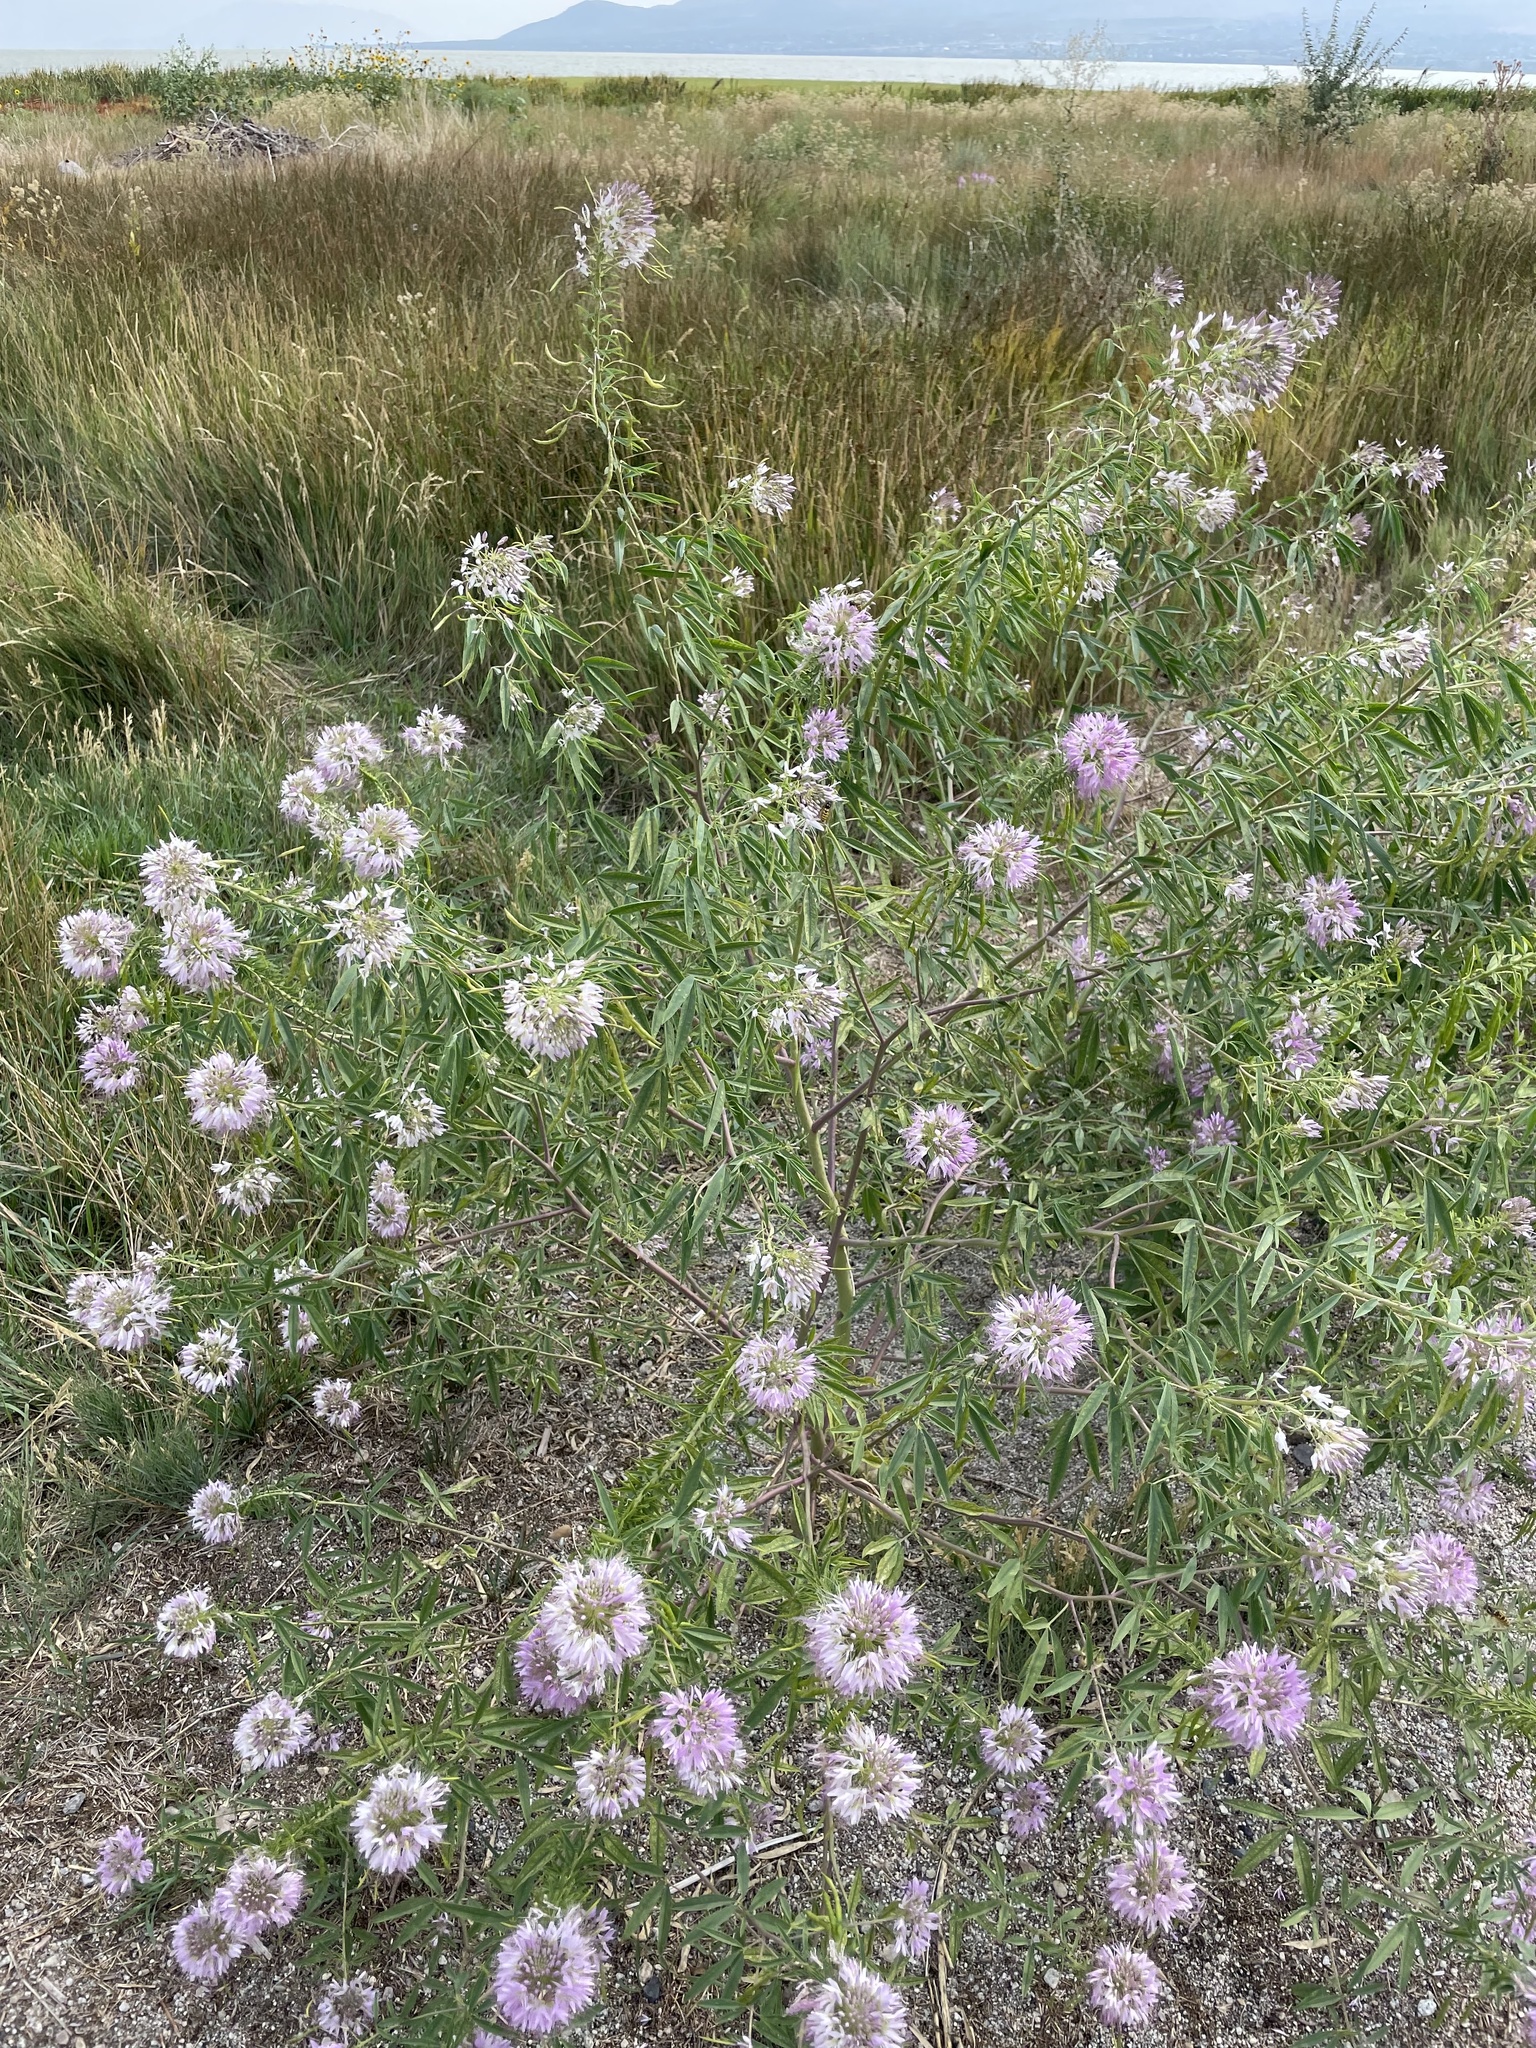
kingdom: Plantae
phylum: Tracheophyta
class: Magnoliopsida
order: Brassicales
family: Cleomaceae
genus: Cleomella
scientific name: Cleomella serrulata
